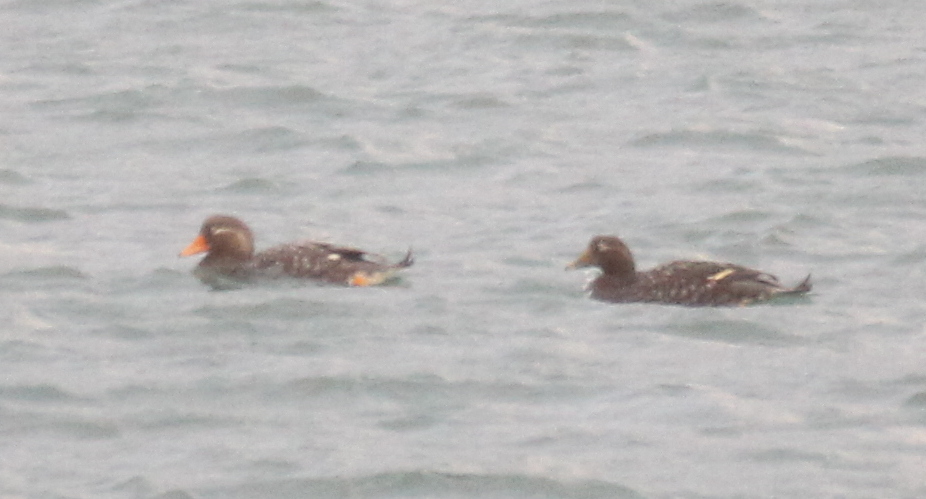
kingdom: Animalia
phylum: Chordata
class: Aves
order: Anseriformes
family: Anatidae
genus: Tachyeres
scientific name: Tachyeres patachonicus
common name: Flying steamer duck
